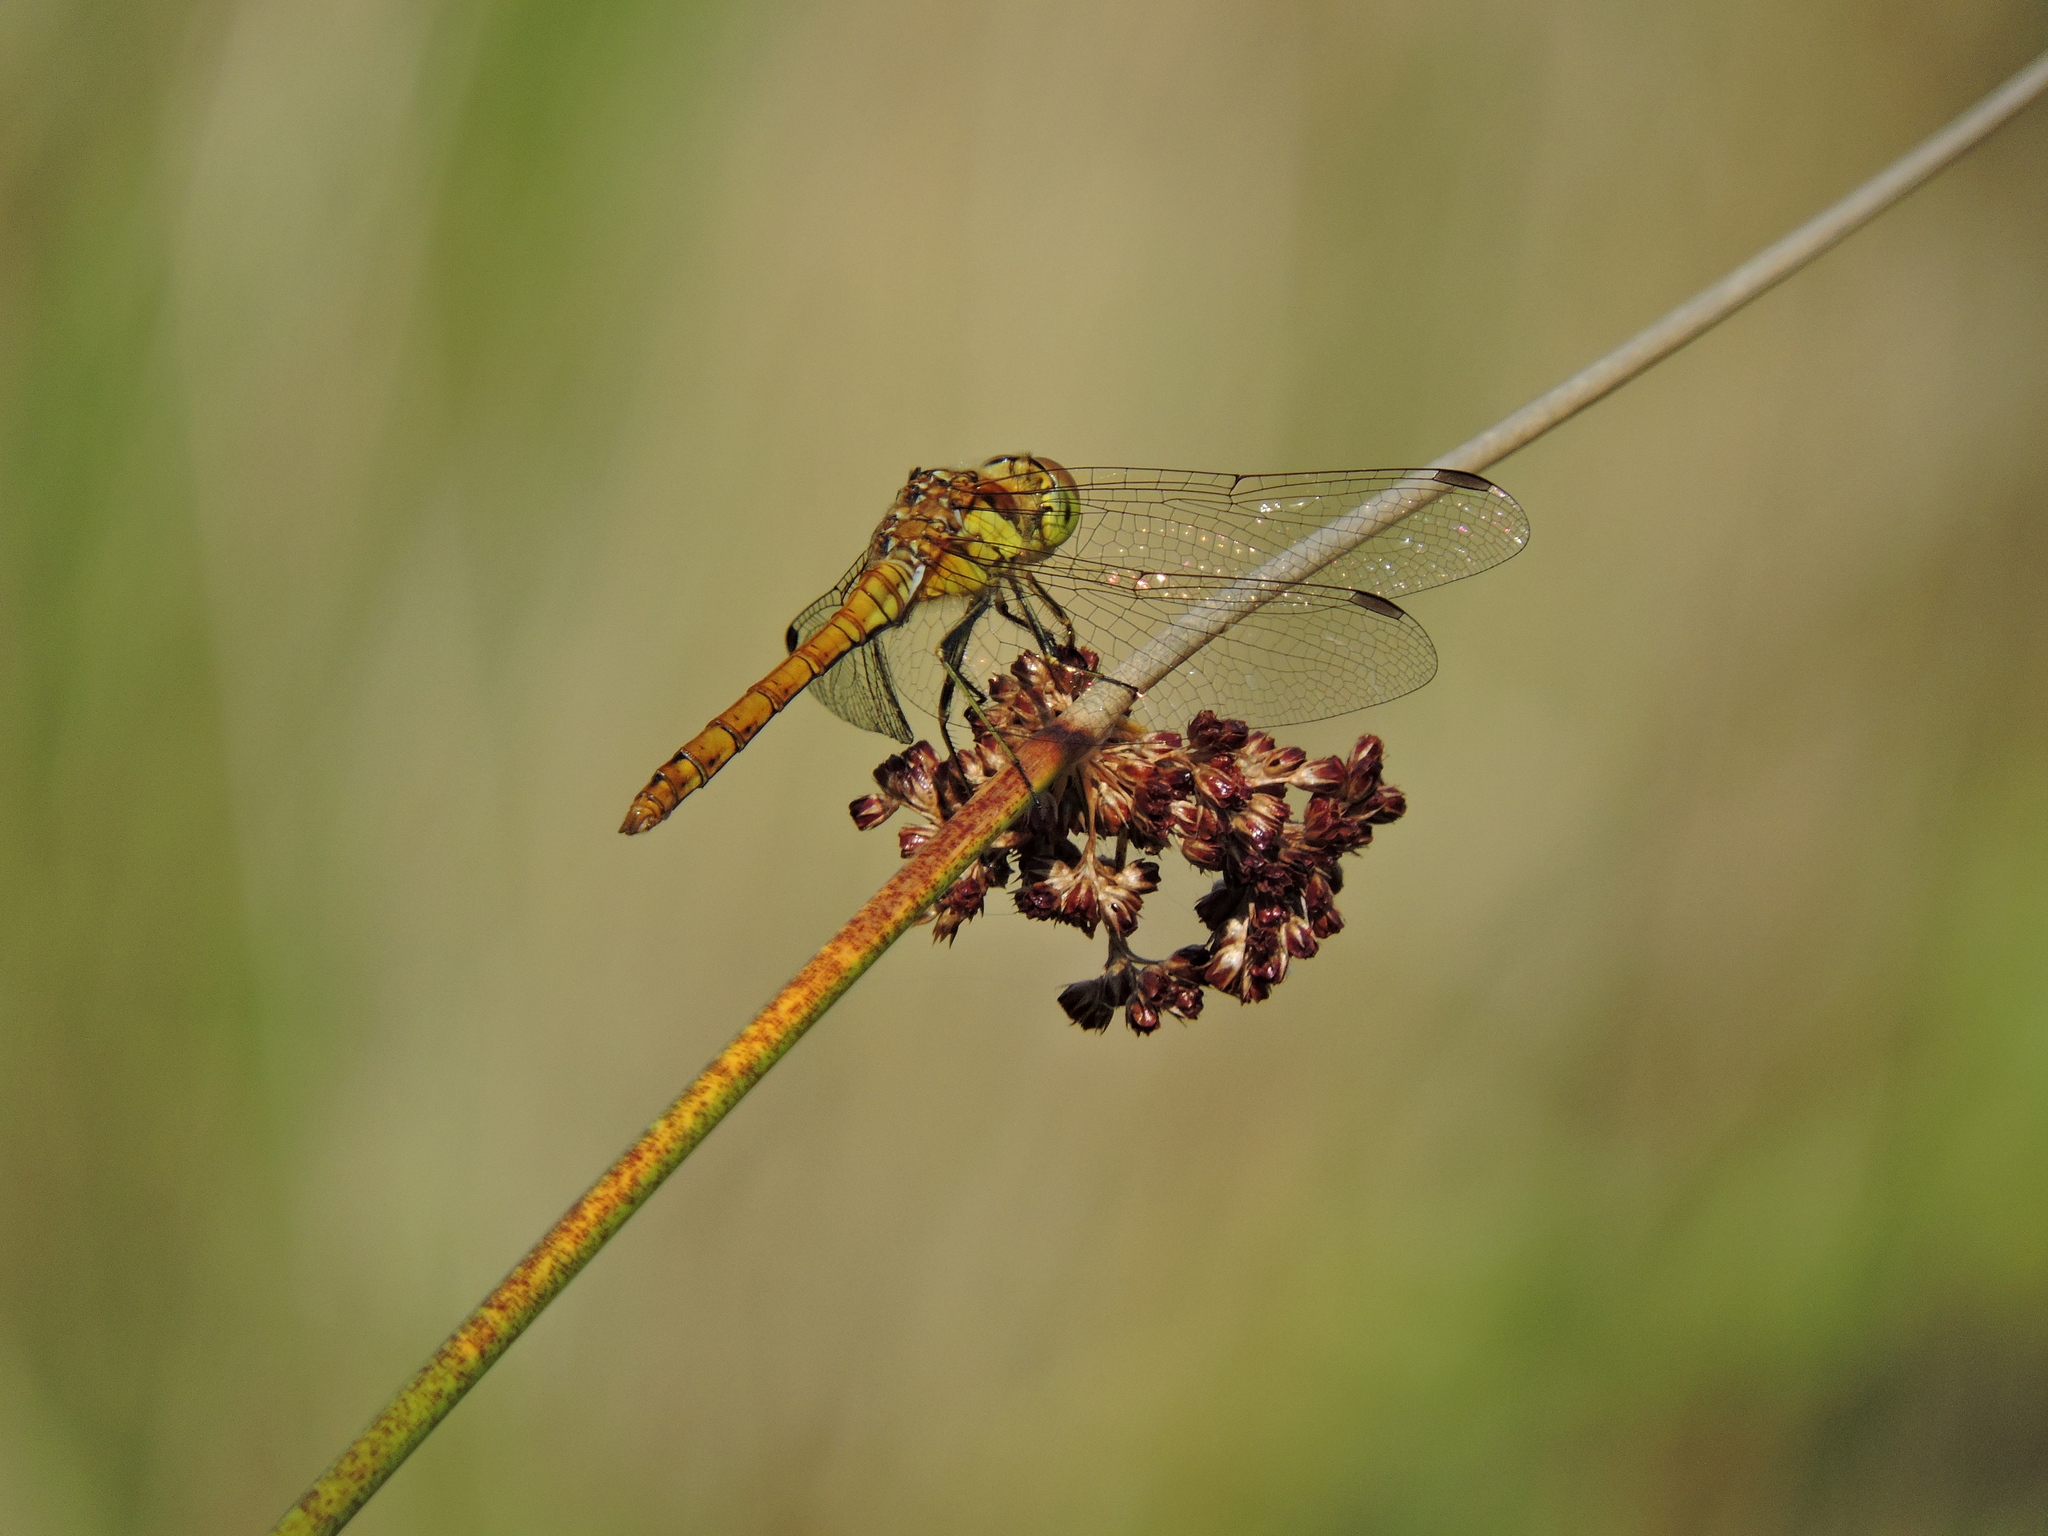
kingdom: Animalia
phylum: Arthropoda
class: Insecta
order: Odonata
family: Libellulidae
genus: Sympetrum
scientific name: Sympetrum striolatum
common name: Common darter
